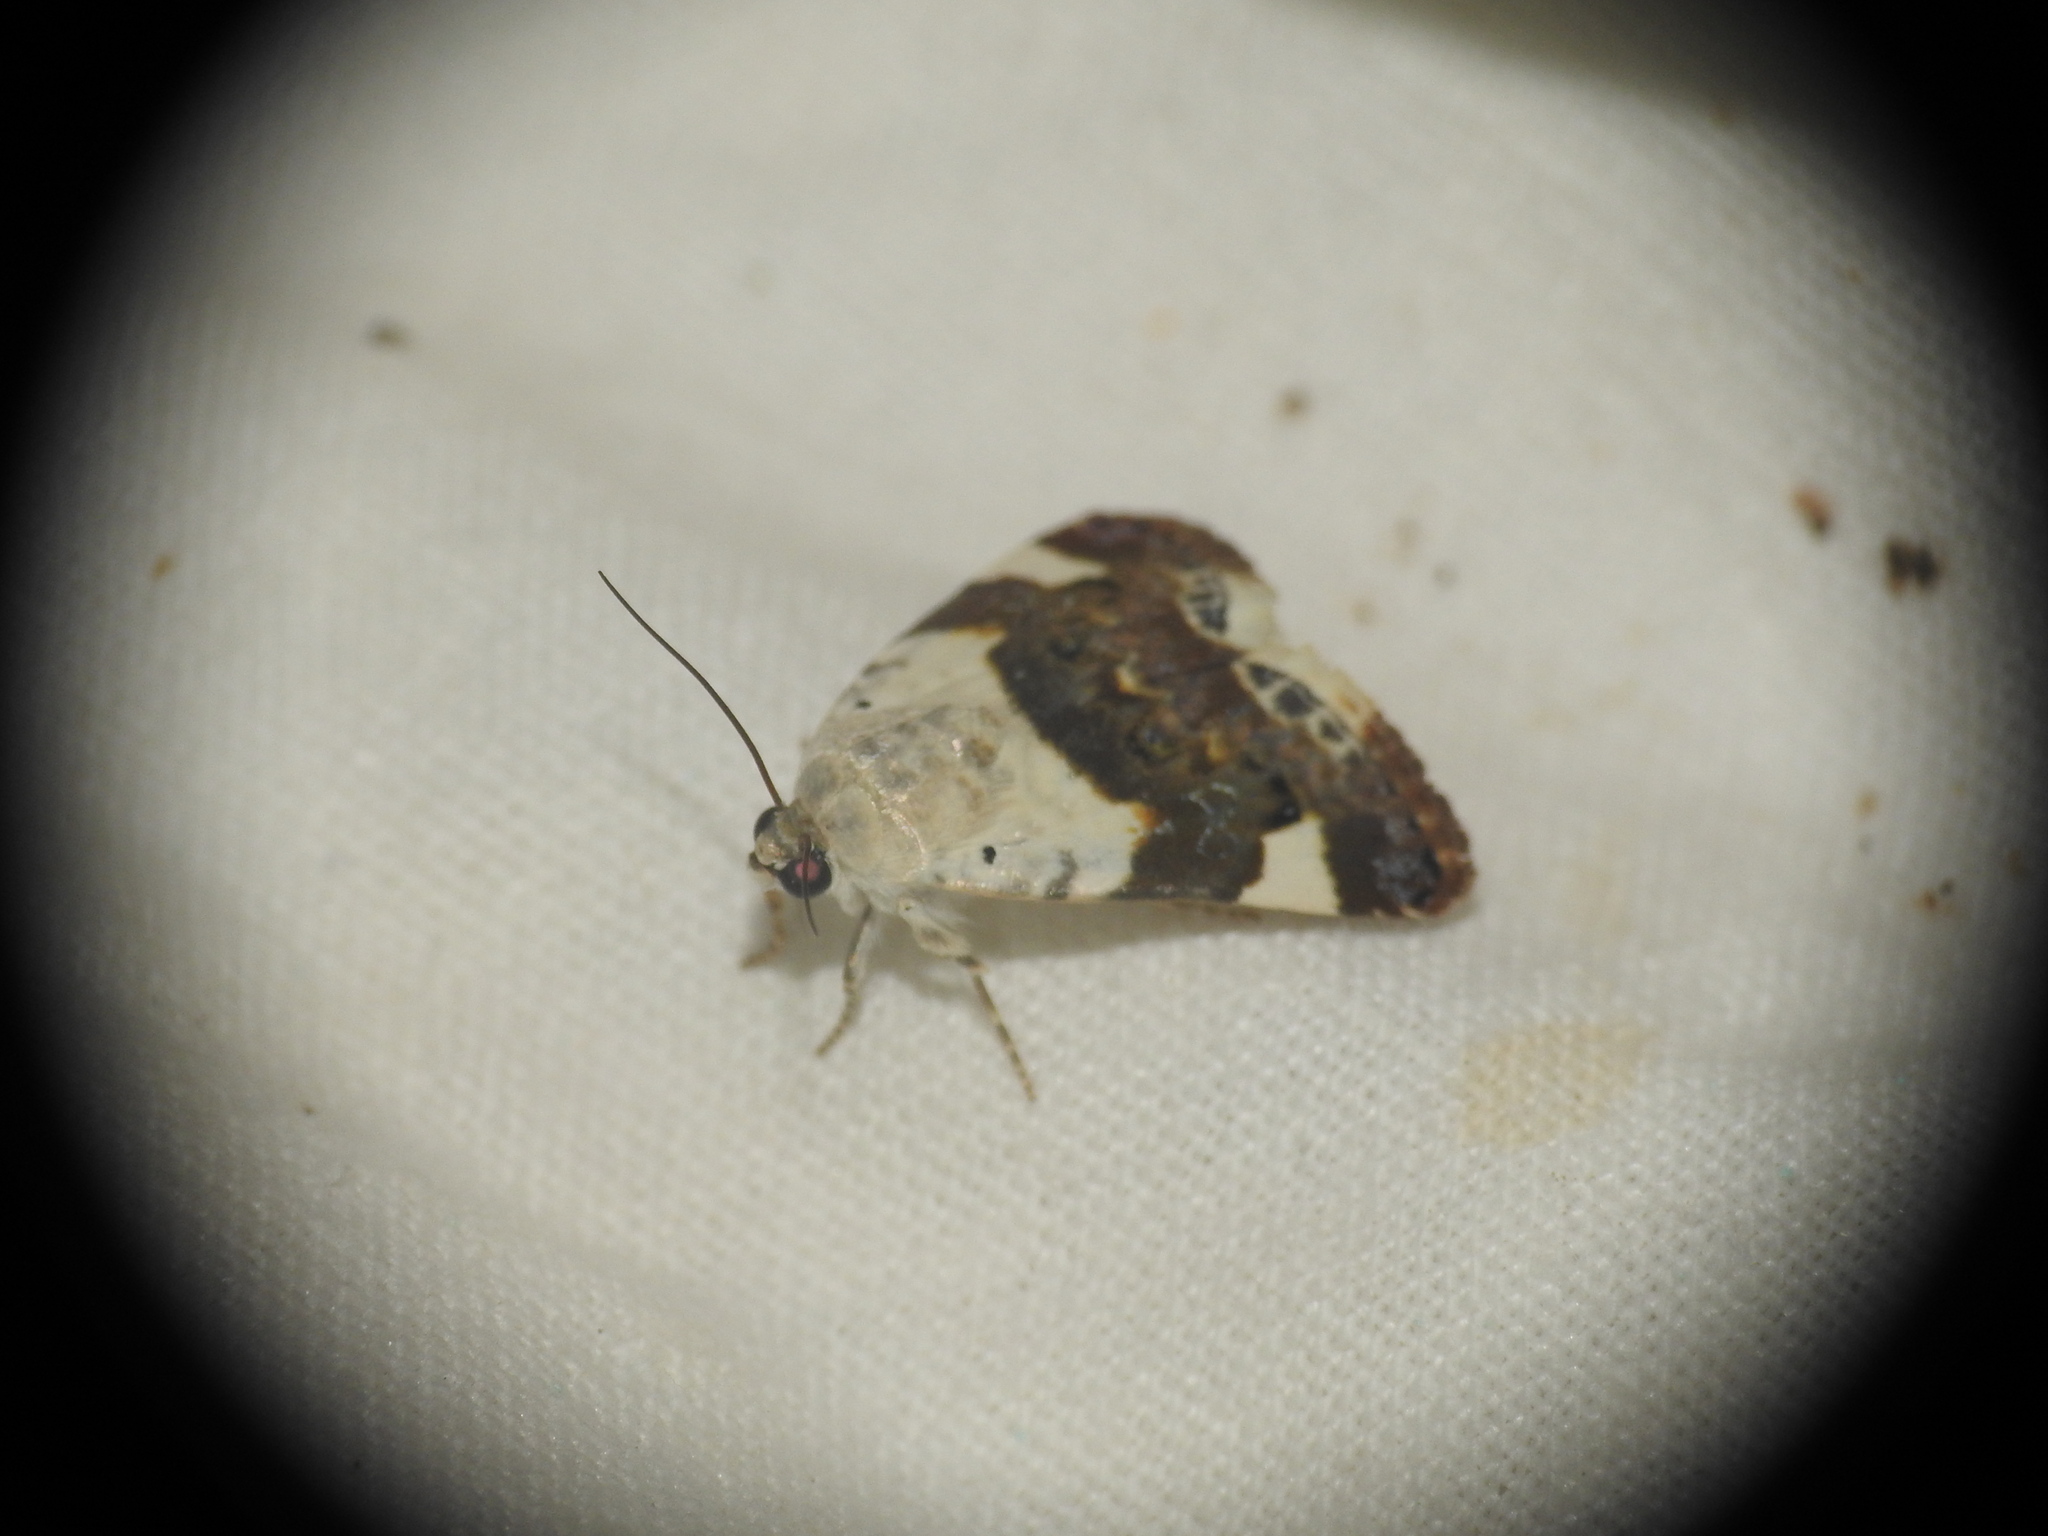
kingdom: Animalia
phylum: Arthropoda
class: Insecta
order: Lepidoptera
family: Noctuidae
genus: Acontia
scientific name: Acontia lucida
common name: Pale shoulder
